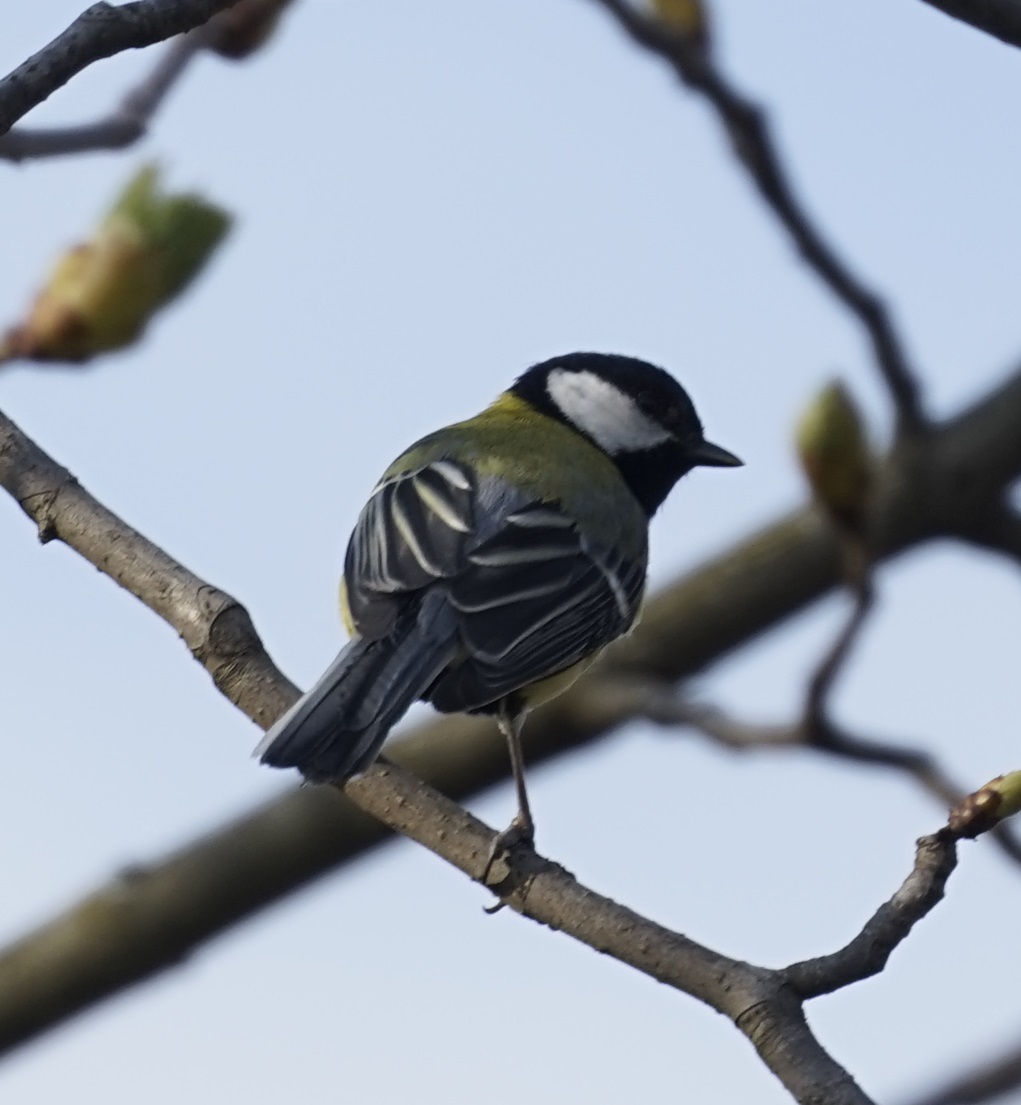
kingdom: Animalia
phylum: Chordata
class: Aves
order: Passeriformes
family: Paridae
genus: Parus
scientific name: Parus major
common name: Great tit
